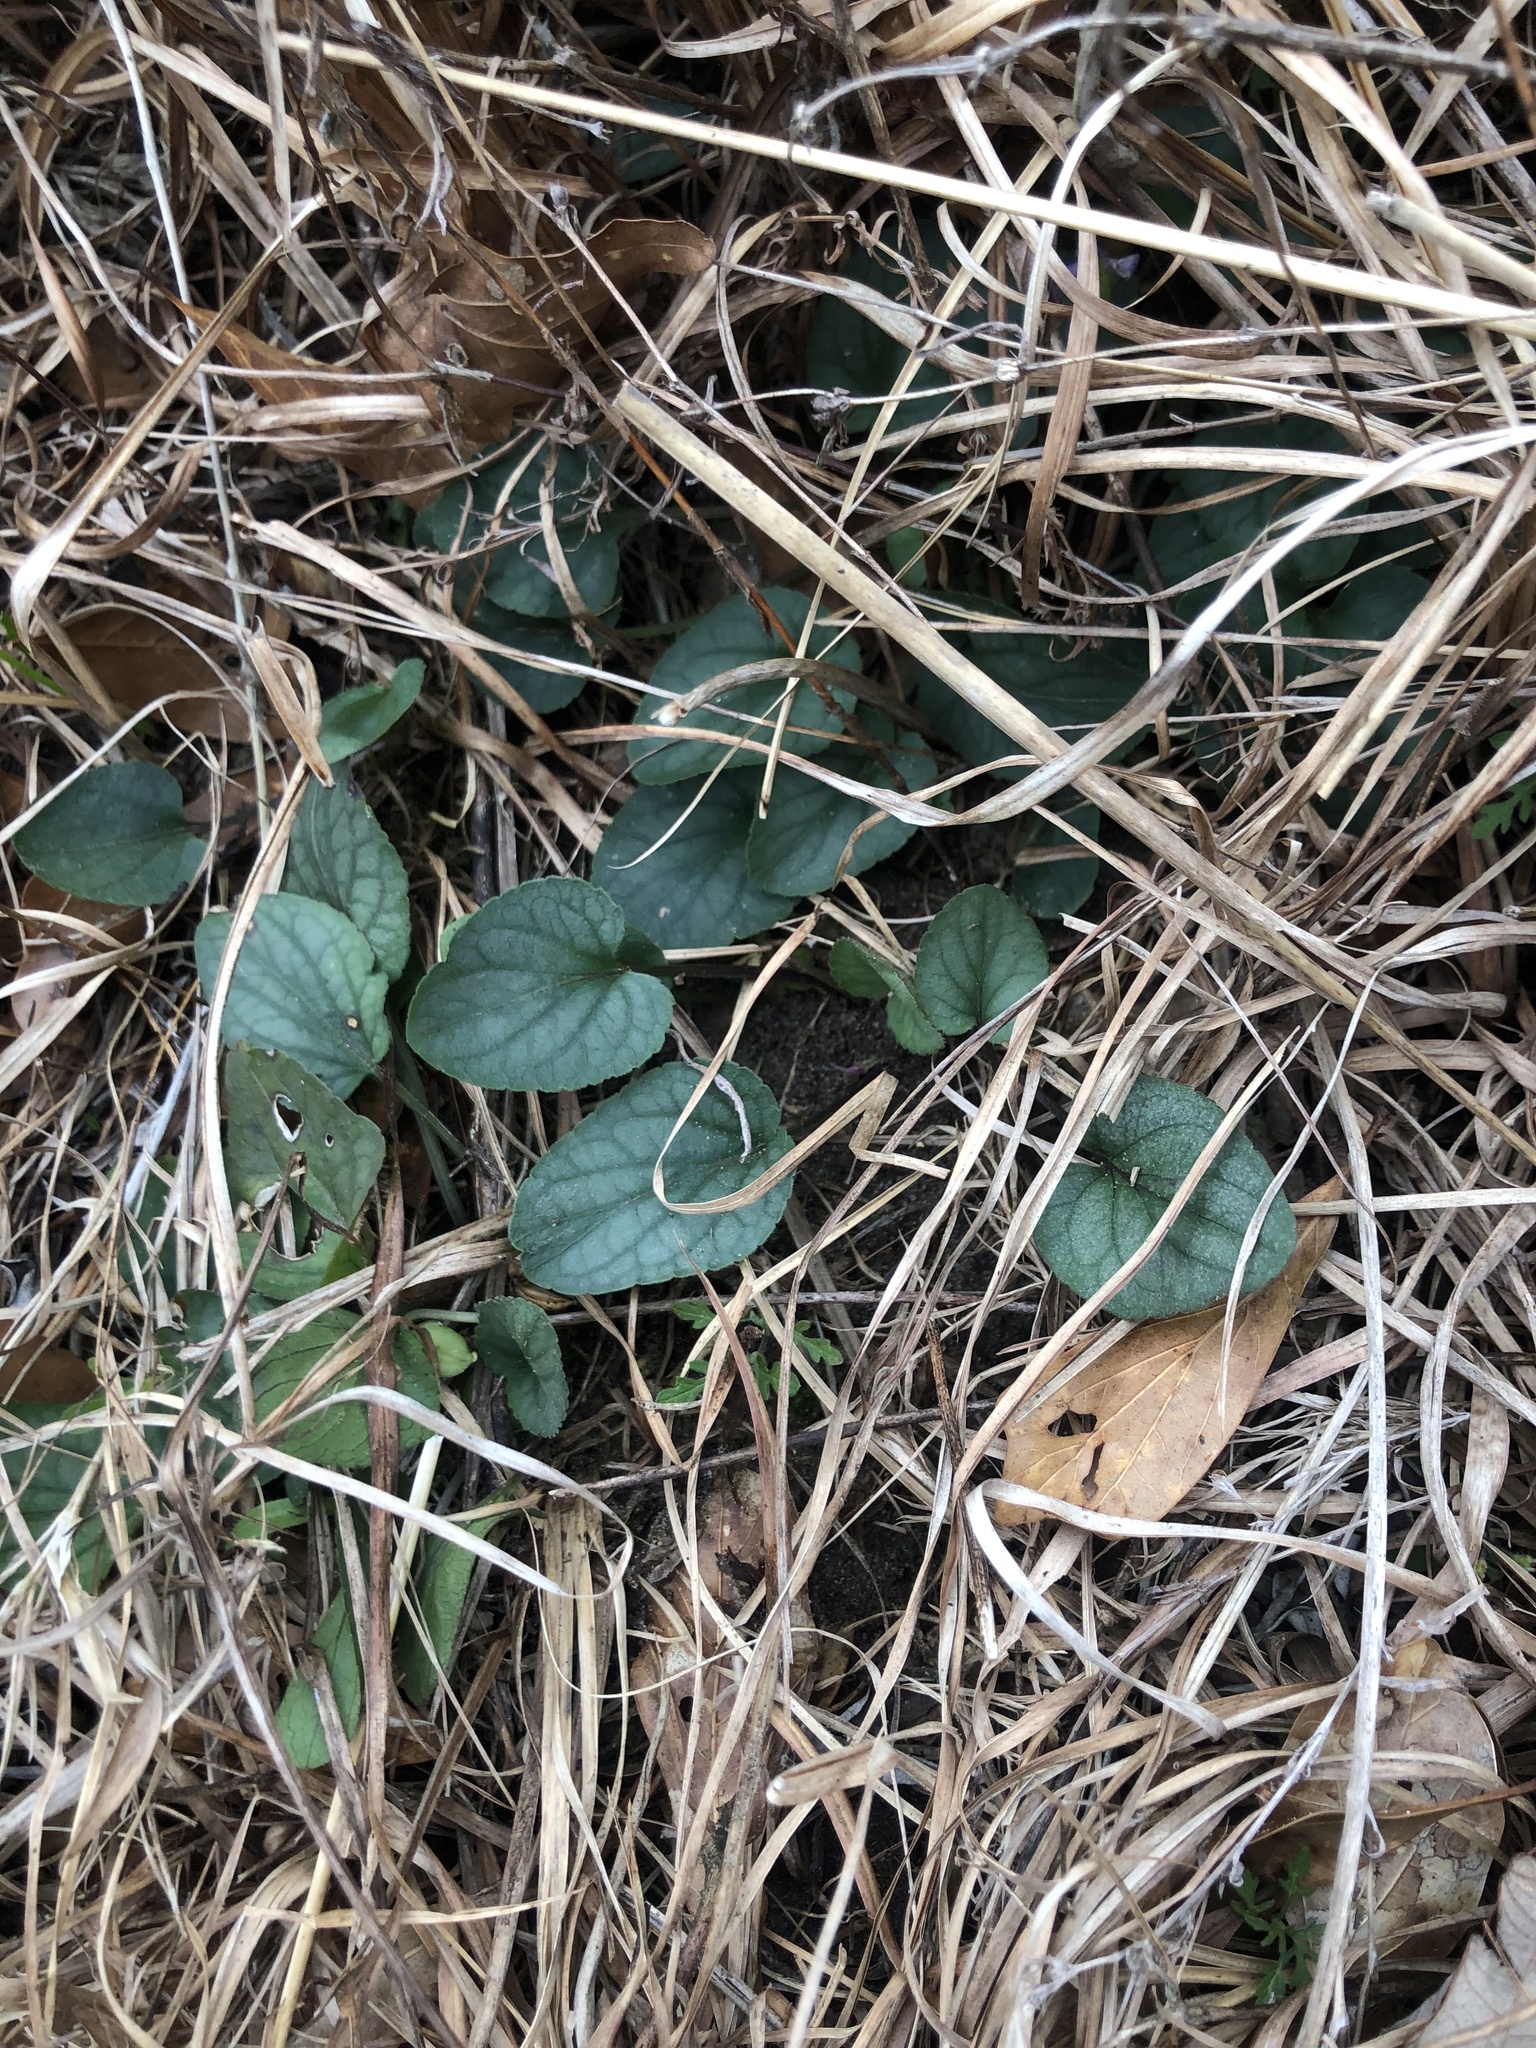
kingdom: Plantae
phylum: Tracheophyta
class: Magnoliopsida
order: Malpighiales
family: Violaceae
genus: Viola
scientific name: Viola villosa
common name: Carolina violet
